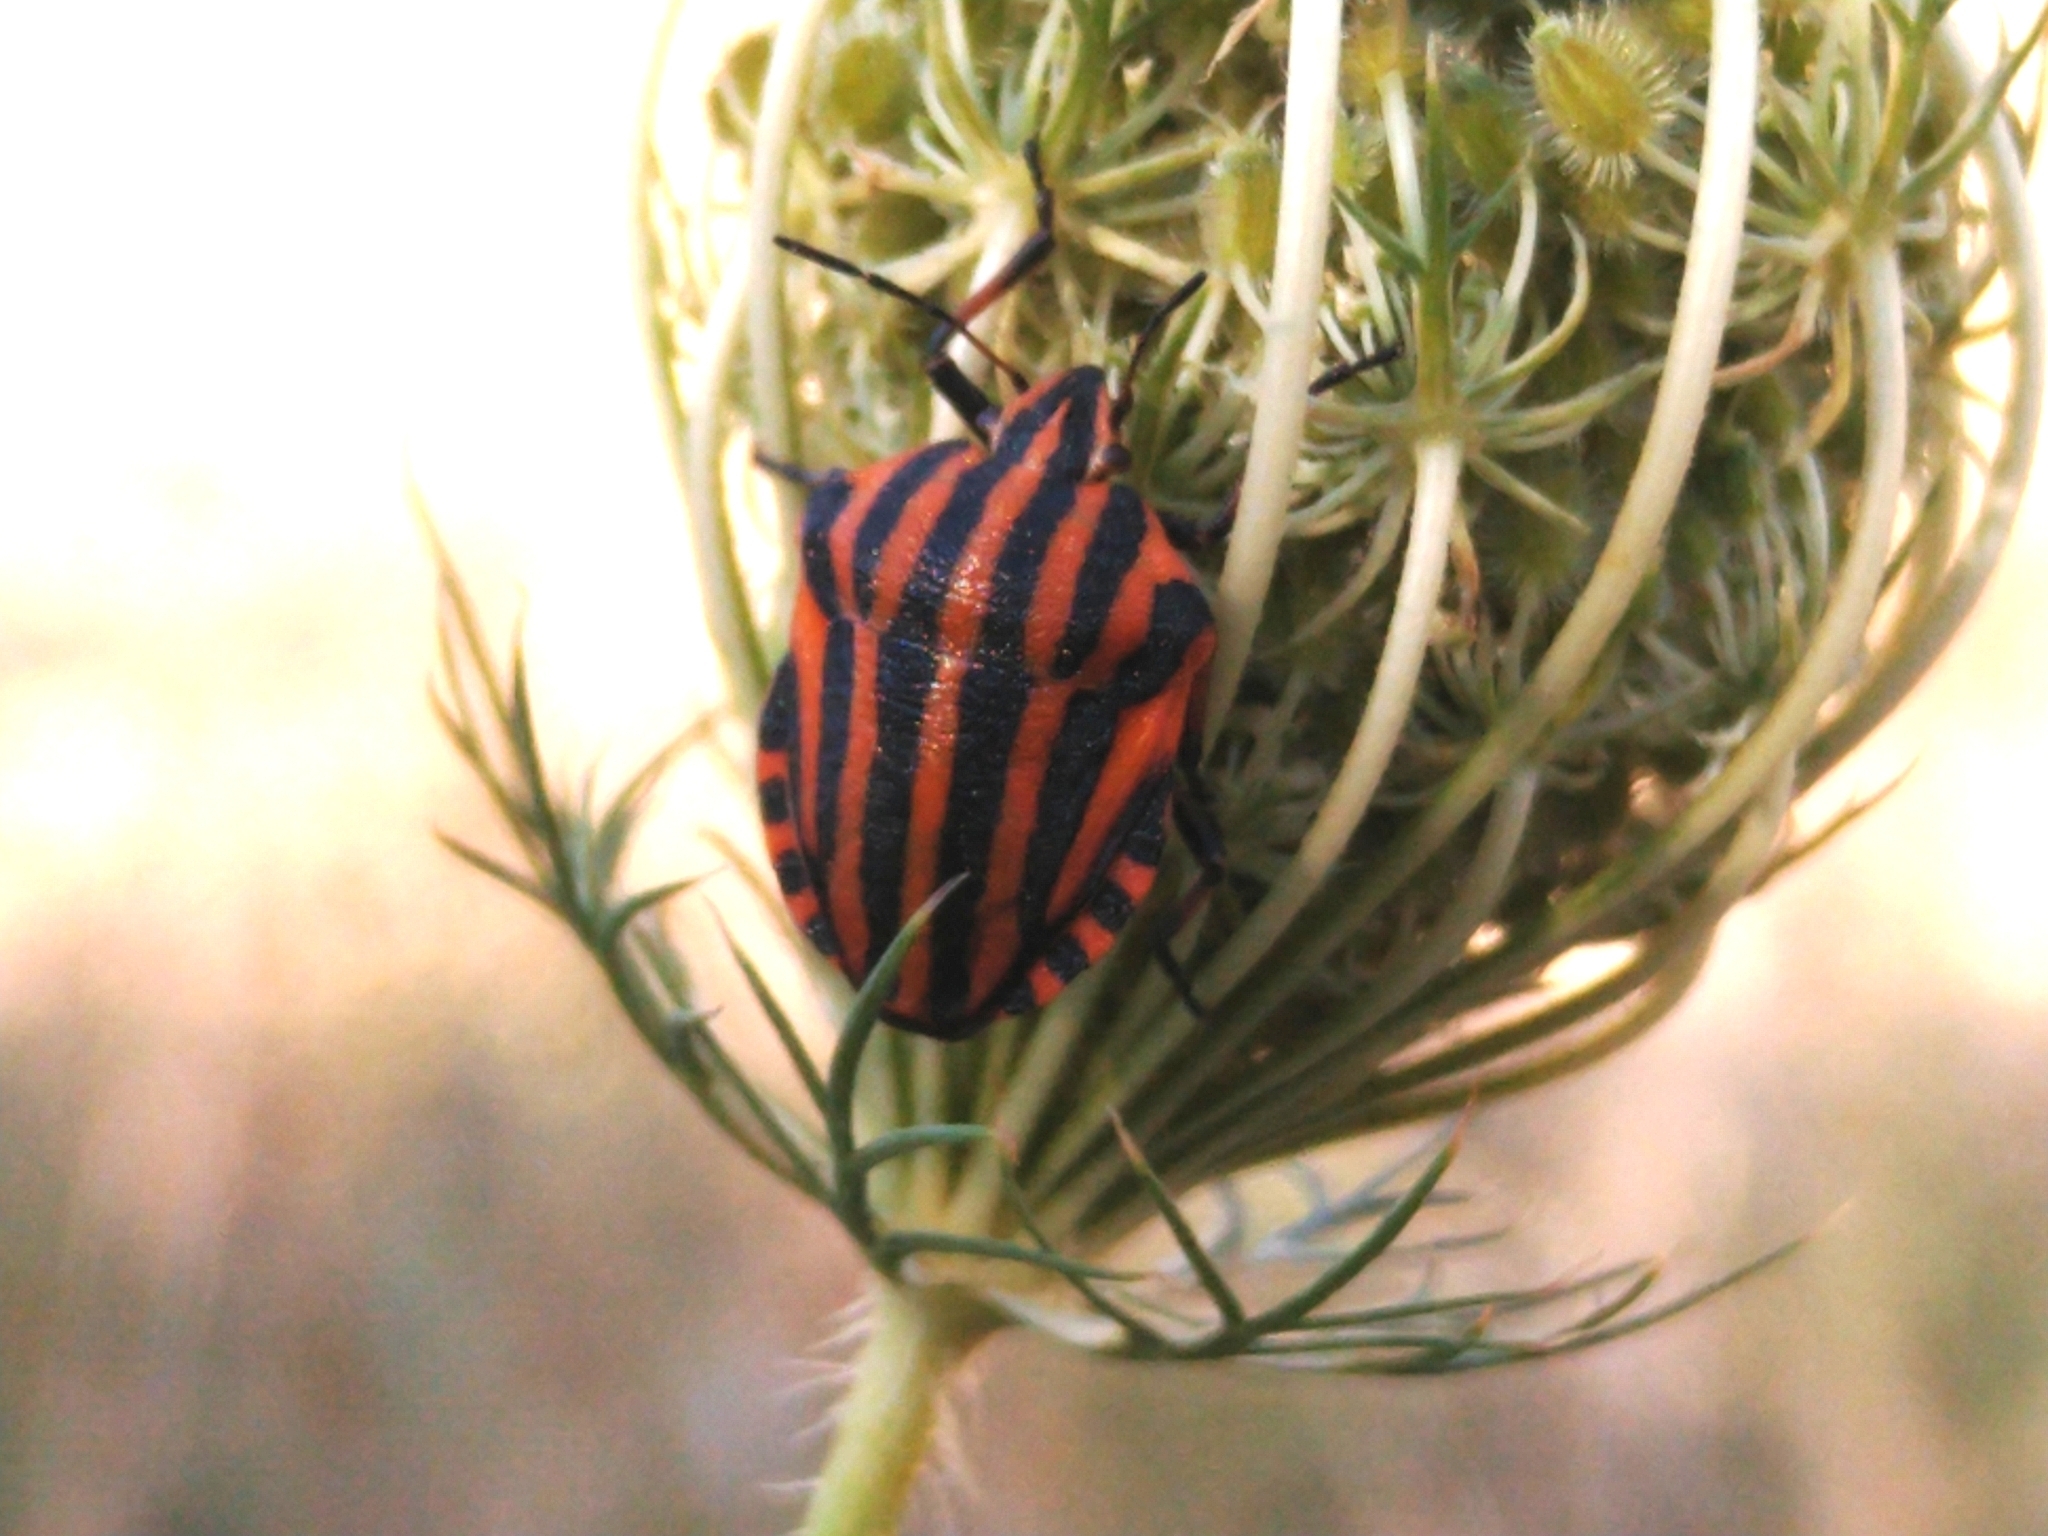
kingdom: Animalia
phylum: Arthropoda
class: Insecta
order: Hemiptera
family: Pentatomidae
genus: Graphosoma
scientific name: Graphosoma italicum
